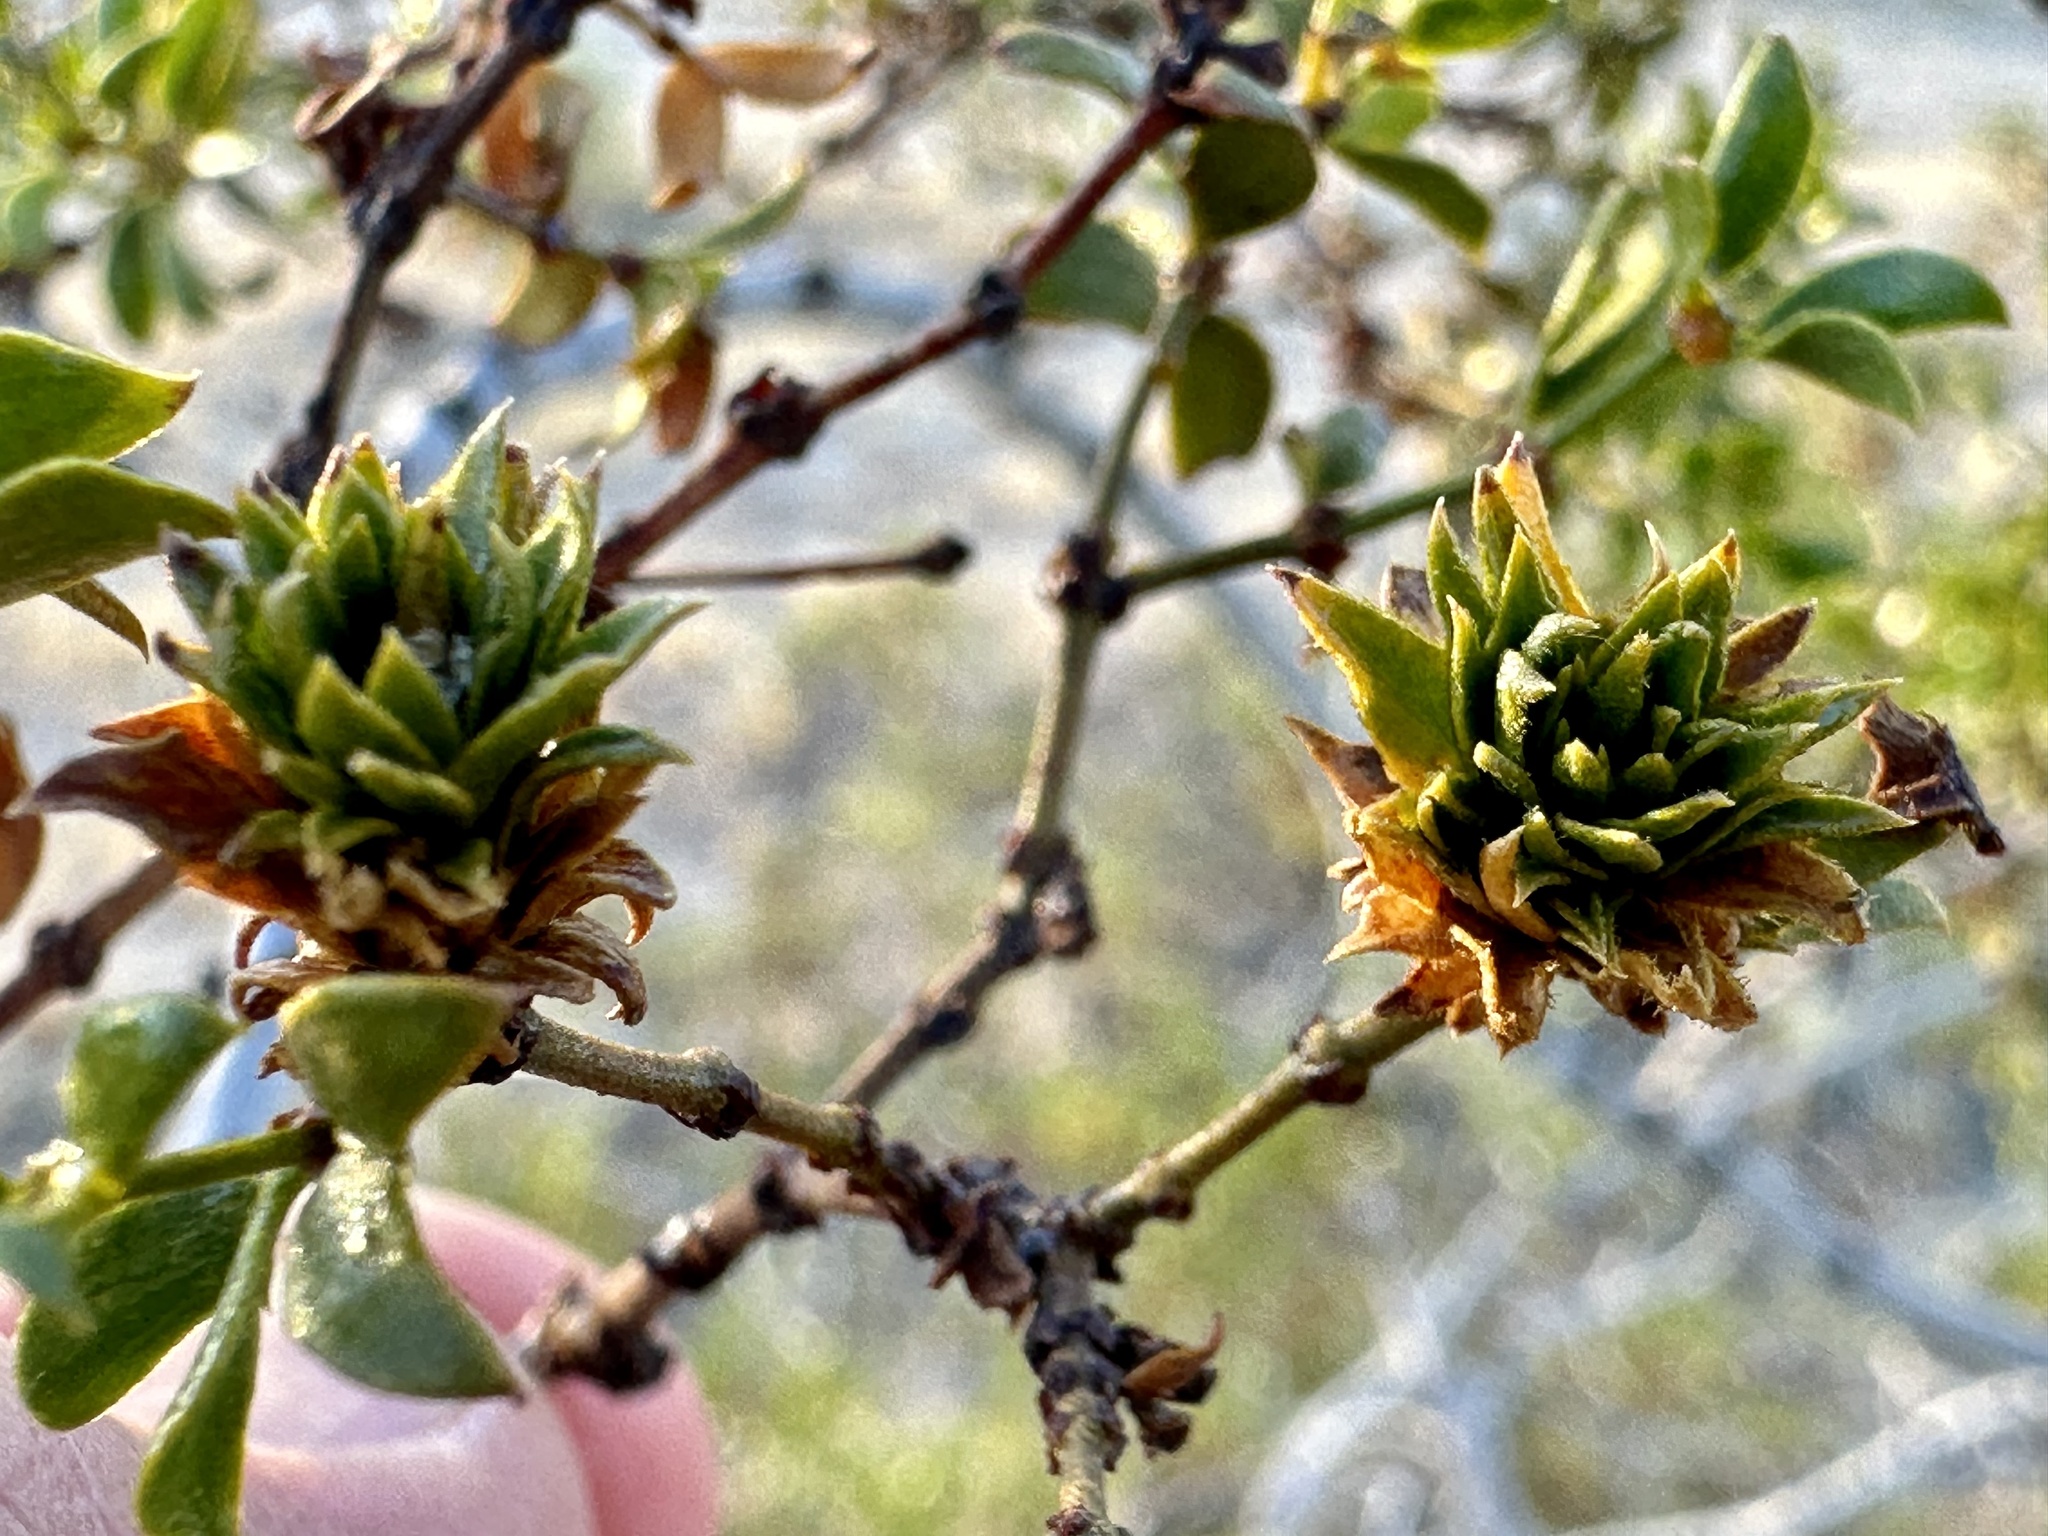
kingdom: Animalia
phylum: Arthropoda
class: Insecta
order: Diptera
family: Cecidomyiidae
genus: Asphondylia
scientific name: Asphondylia rosetta
